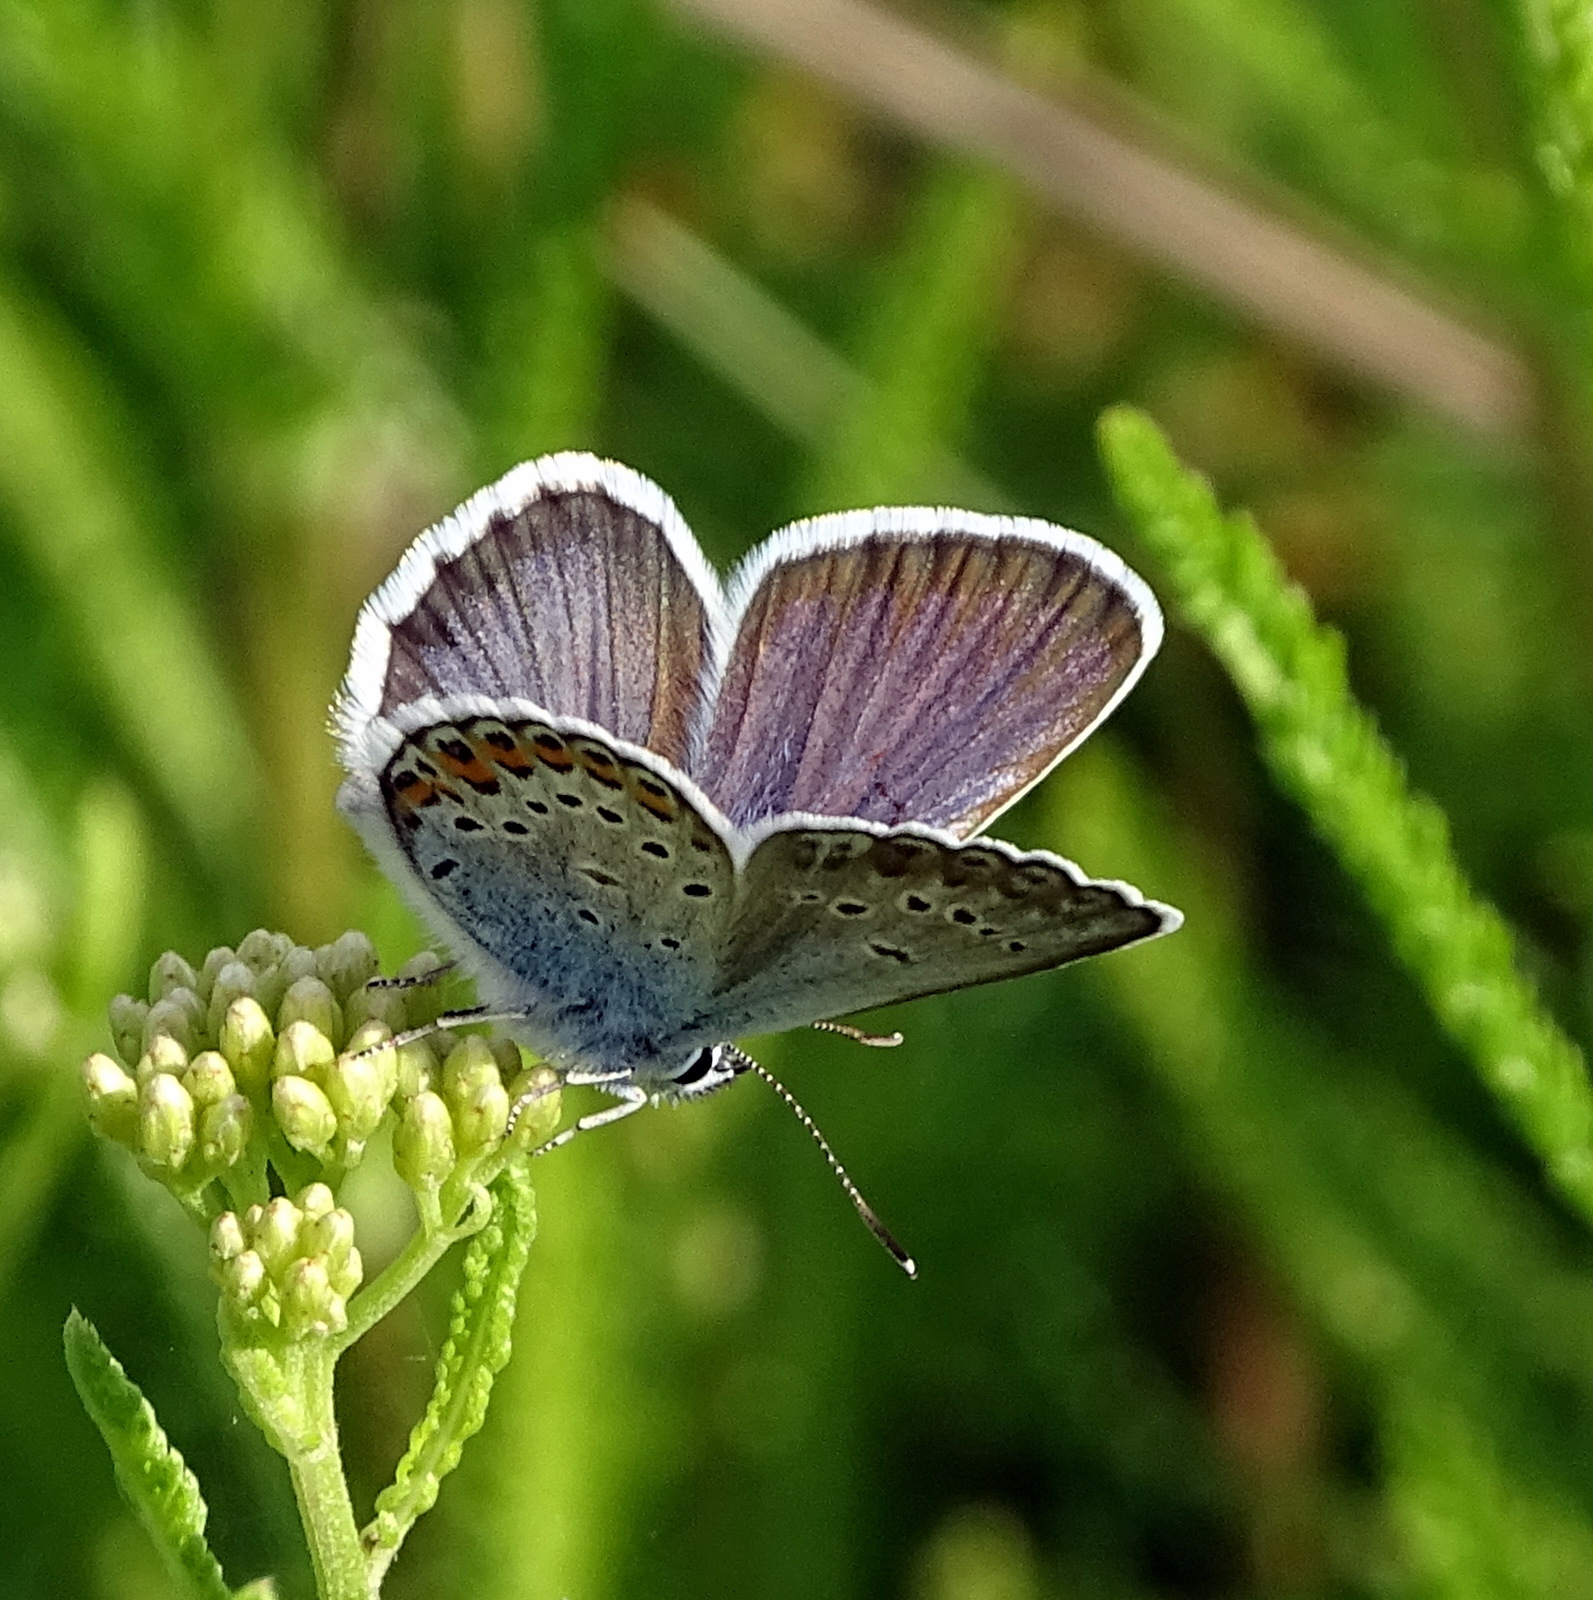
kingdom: Animalia
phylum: Arthropoda
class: Insecta
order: Lepidoptera
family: Lycaenidae
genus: Plebejus
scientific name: Plebejus argus
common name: Silver-studded blue
